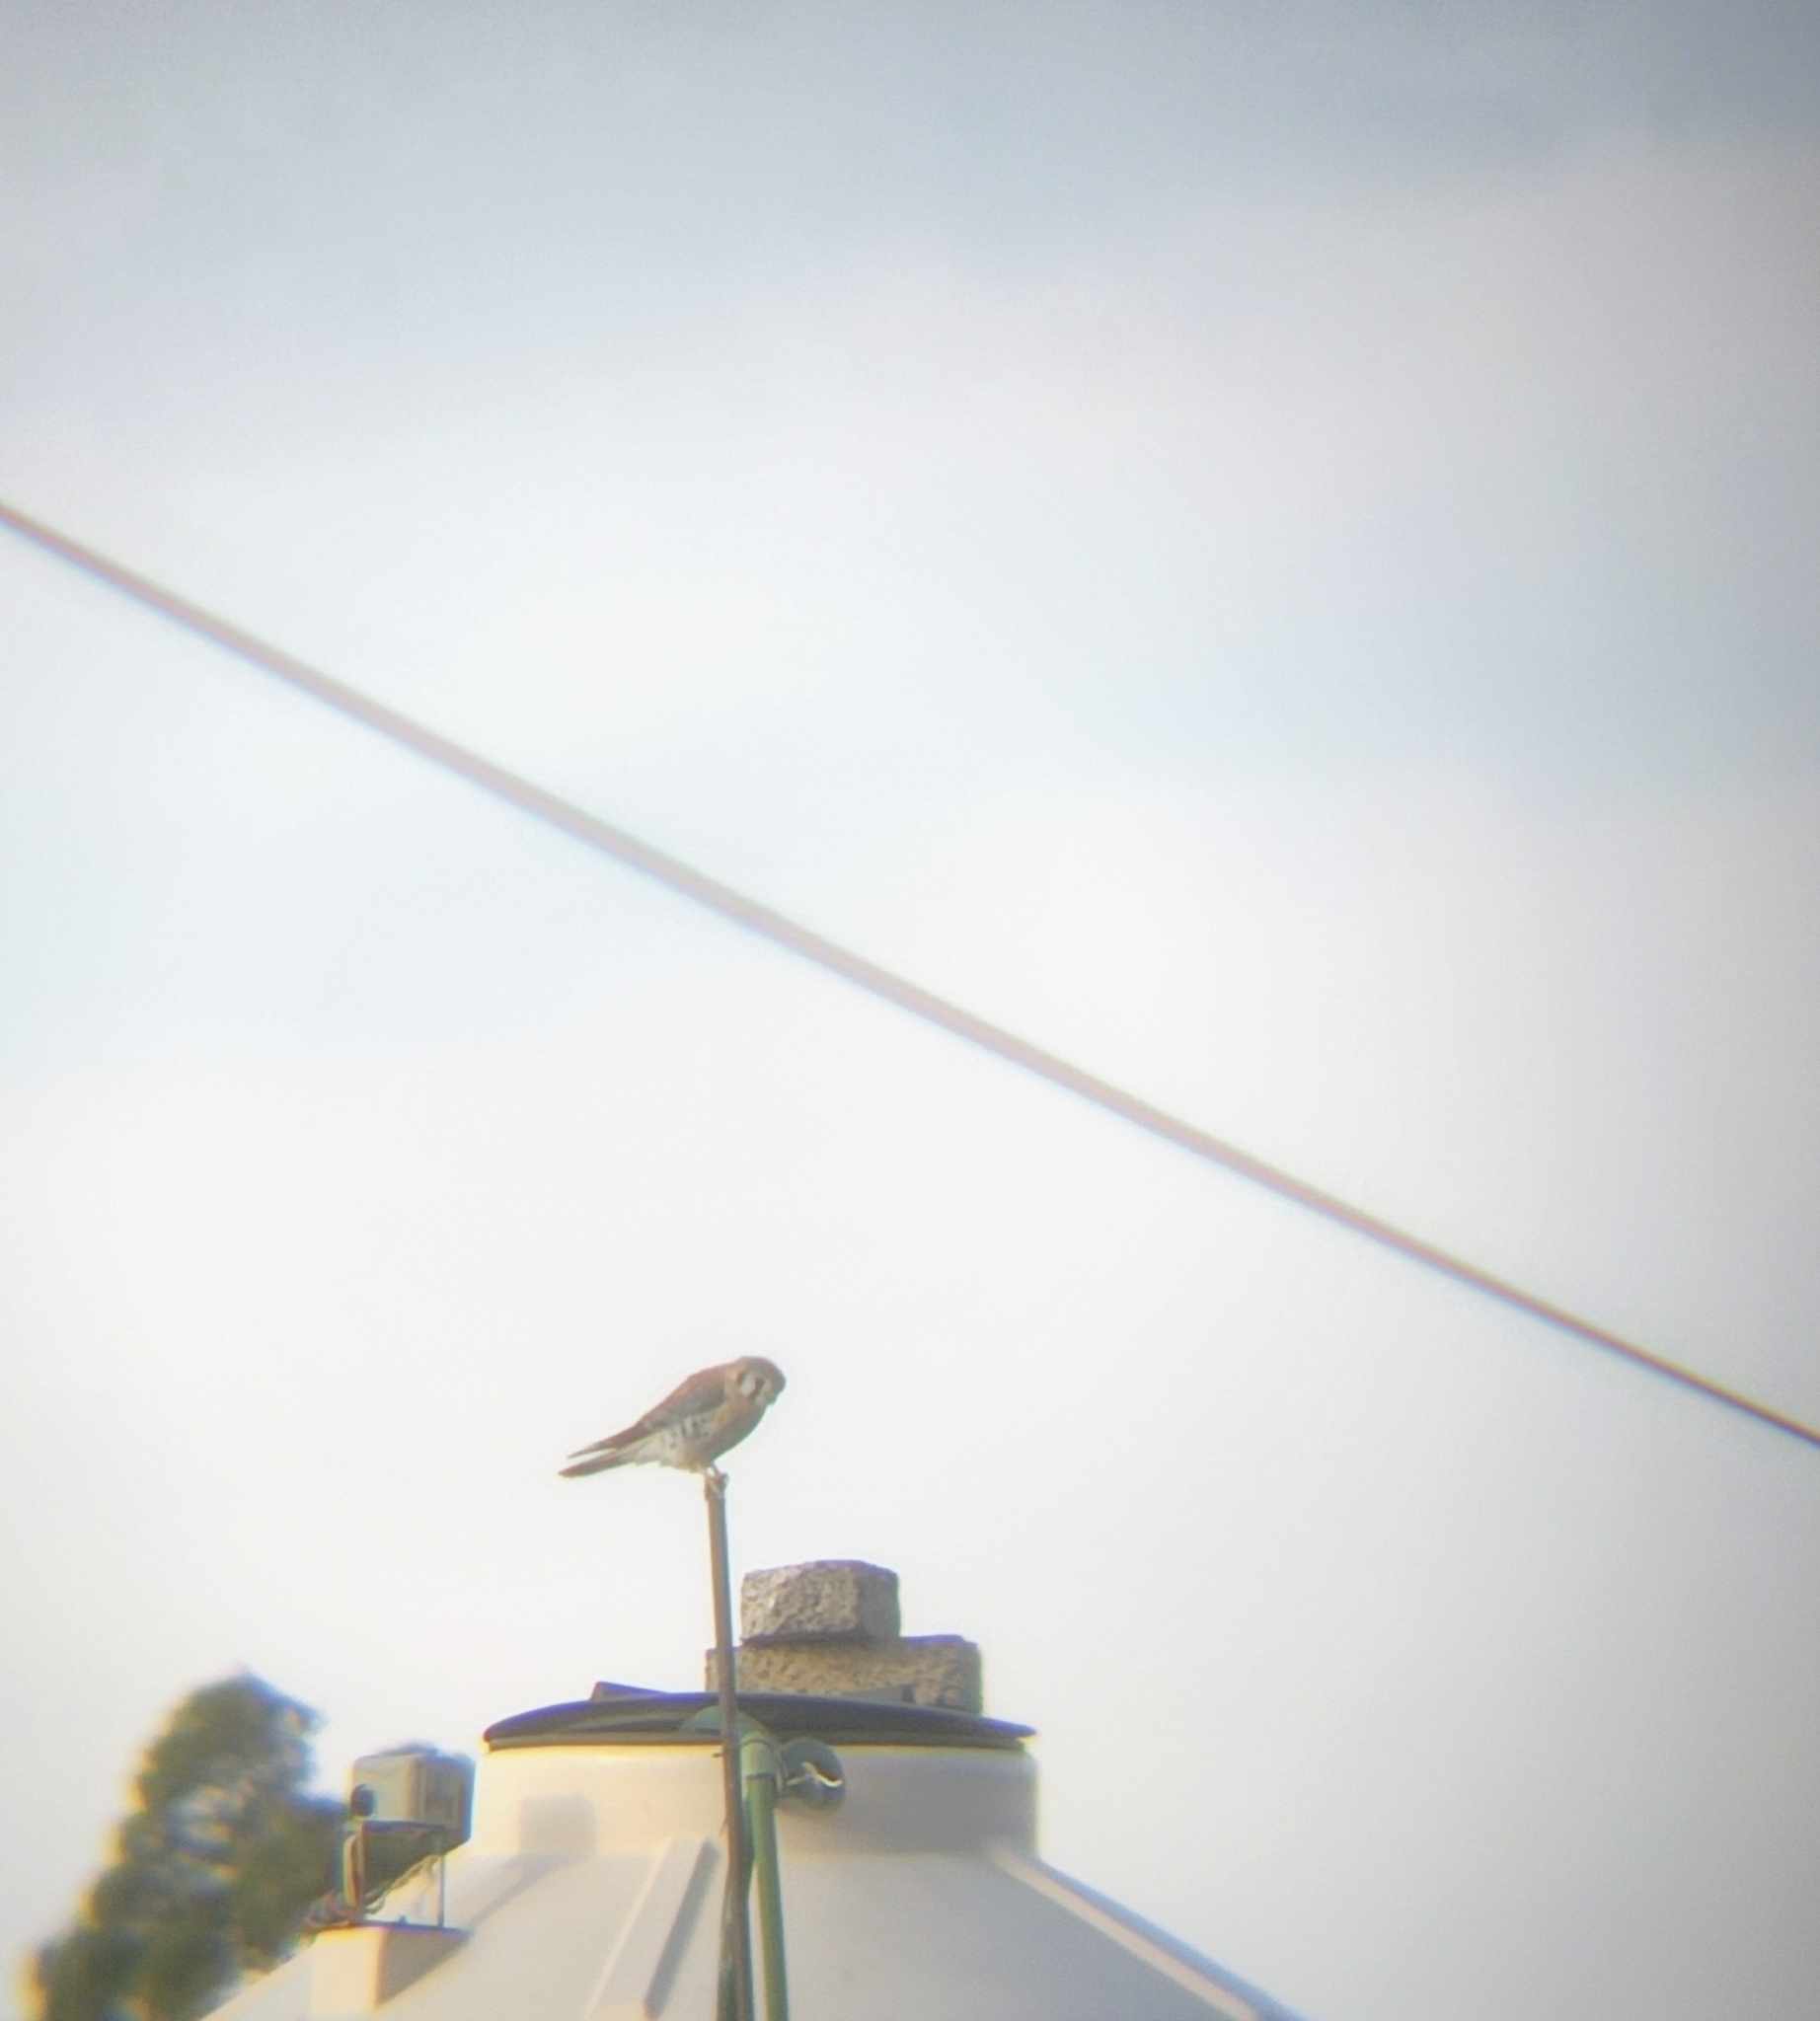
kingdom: Animalia
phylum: Chordata
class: Aves
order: Falconiformes
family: Falconidae
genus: Falco
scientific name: Falco sparverius
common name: American kestrel
